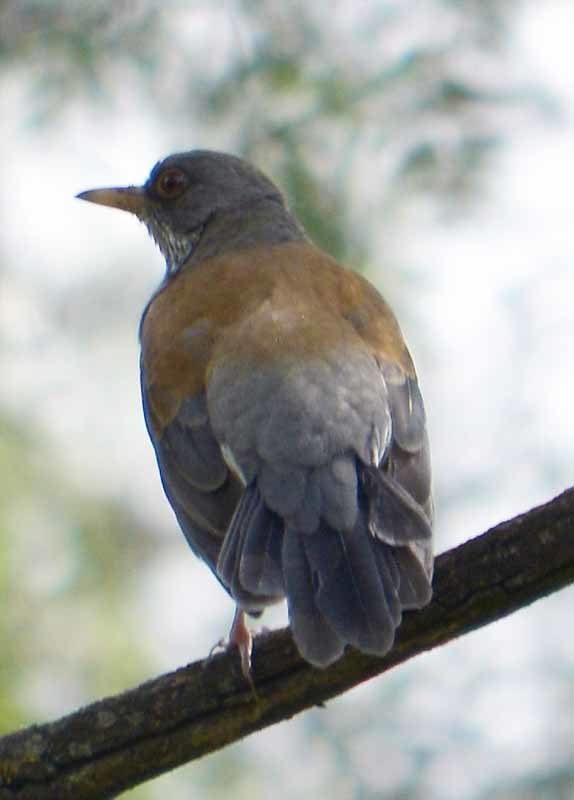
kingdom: Animalia
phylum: Chordata
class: Aves
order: Passeriformes
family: Turdidae
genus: Turdus
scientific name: Turdus rufopalliatus
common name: Rufous-backed robin
